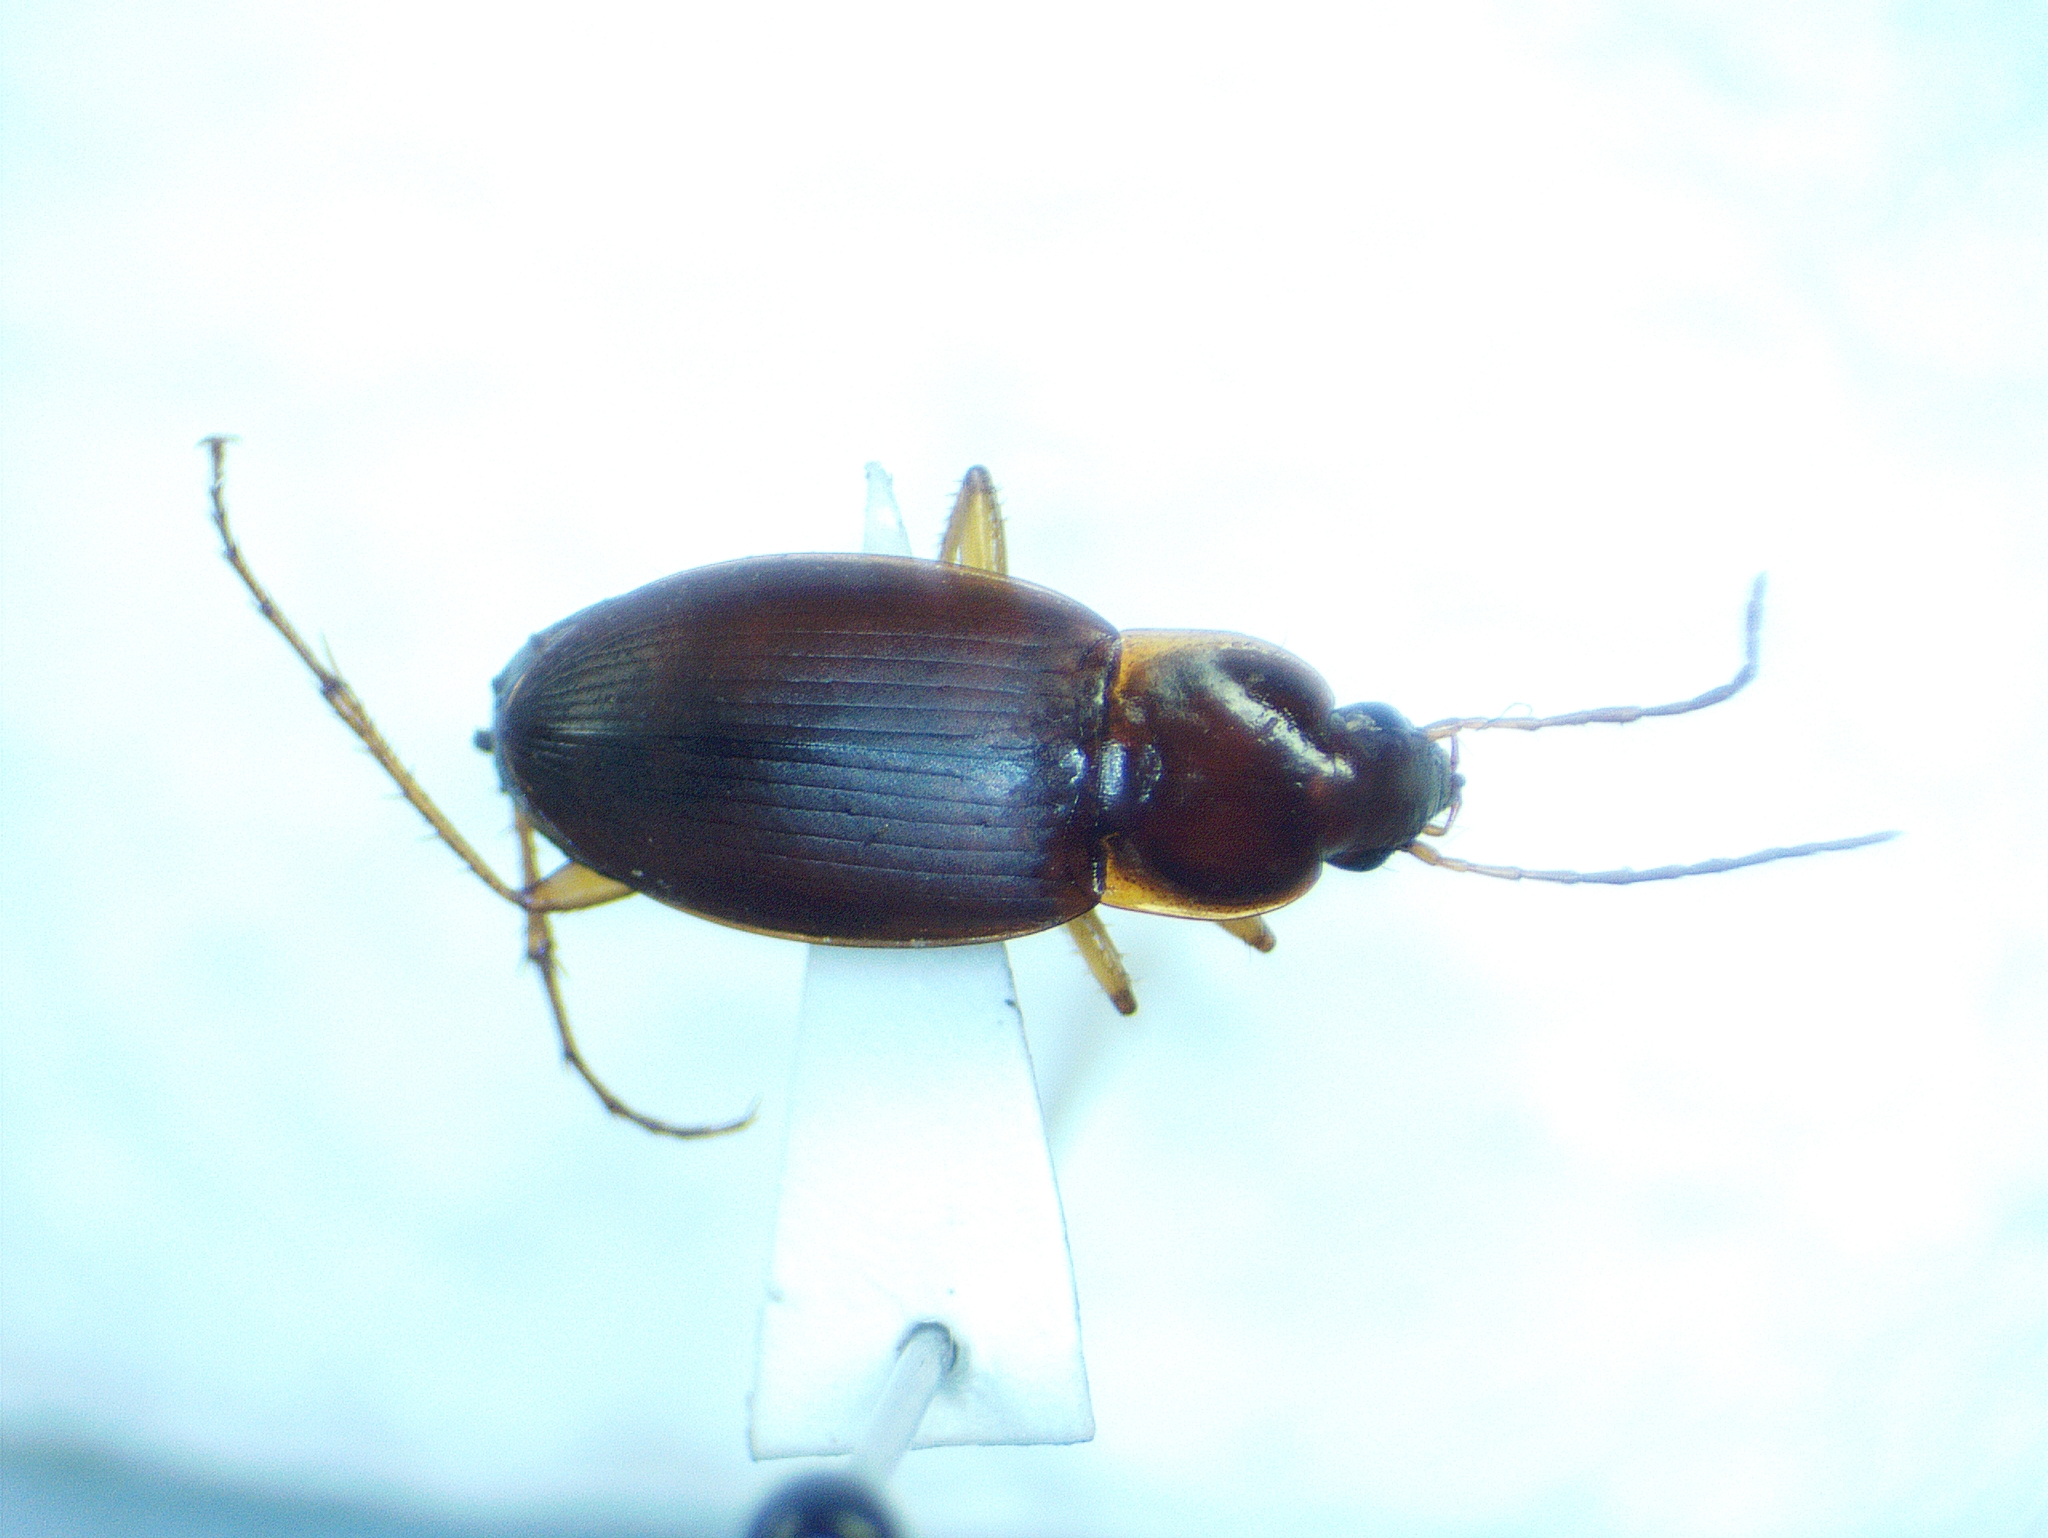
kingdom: Animalia
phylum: Arthropoda
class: Insecta
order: Coleoptera
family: Carabidae
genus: Calathus
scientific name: Calathus opaculus
